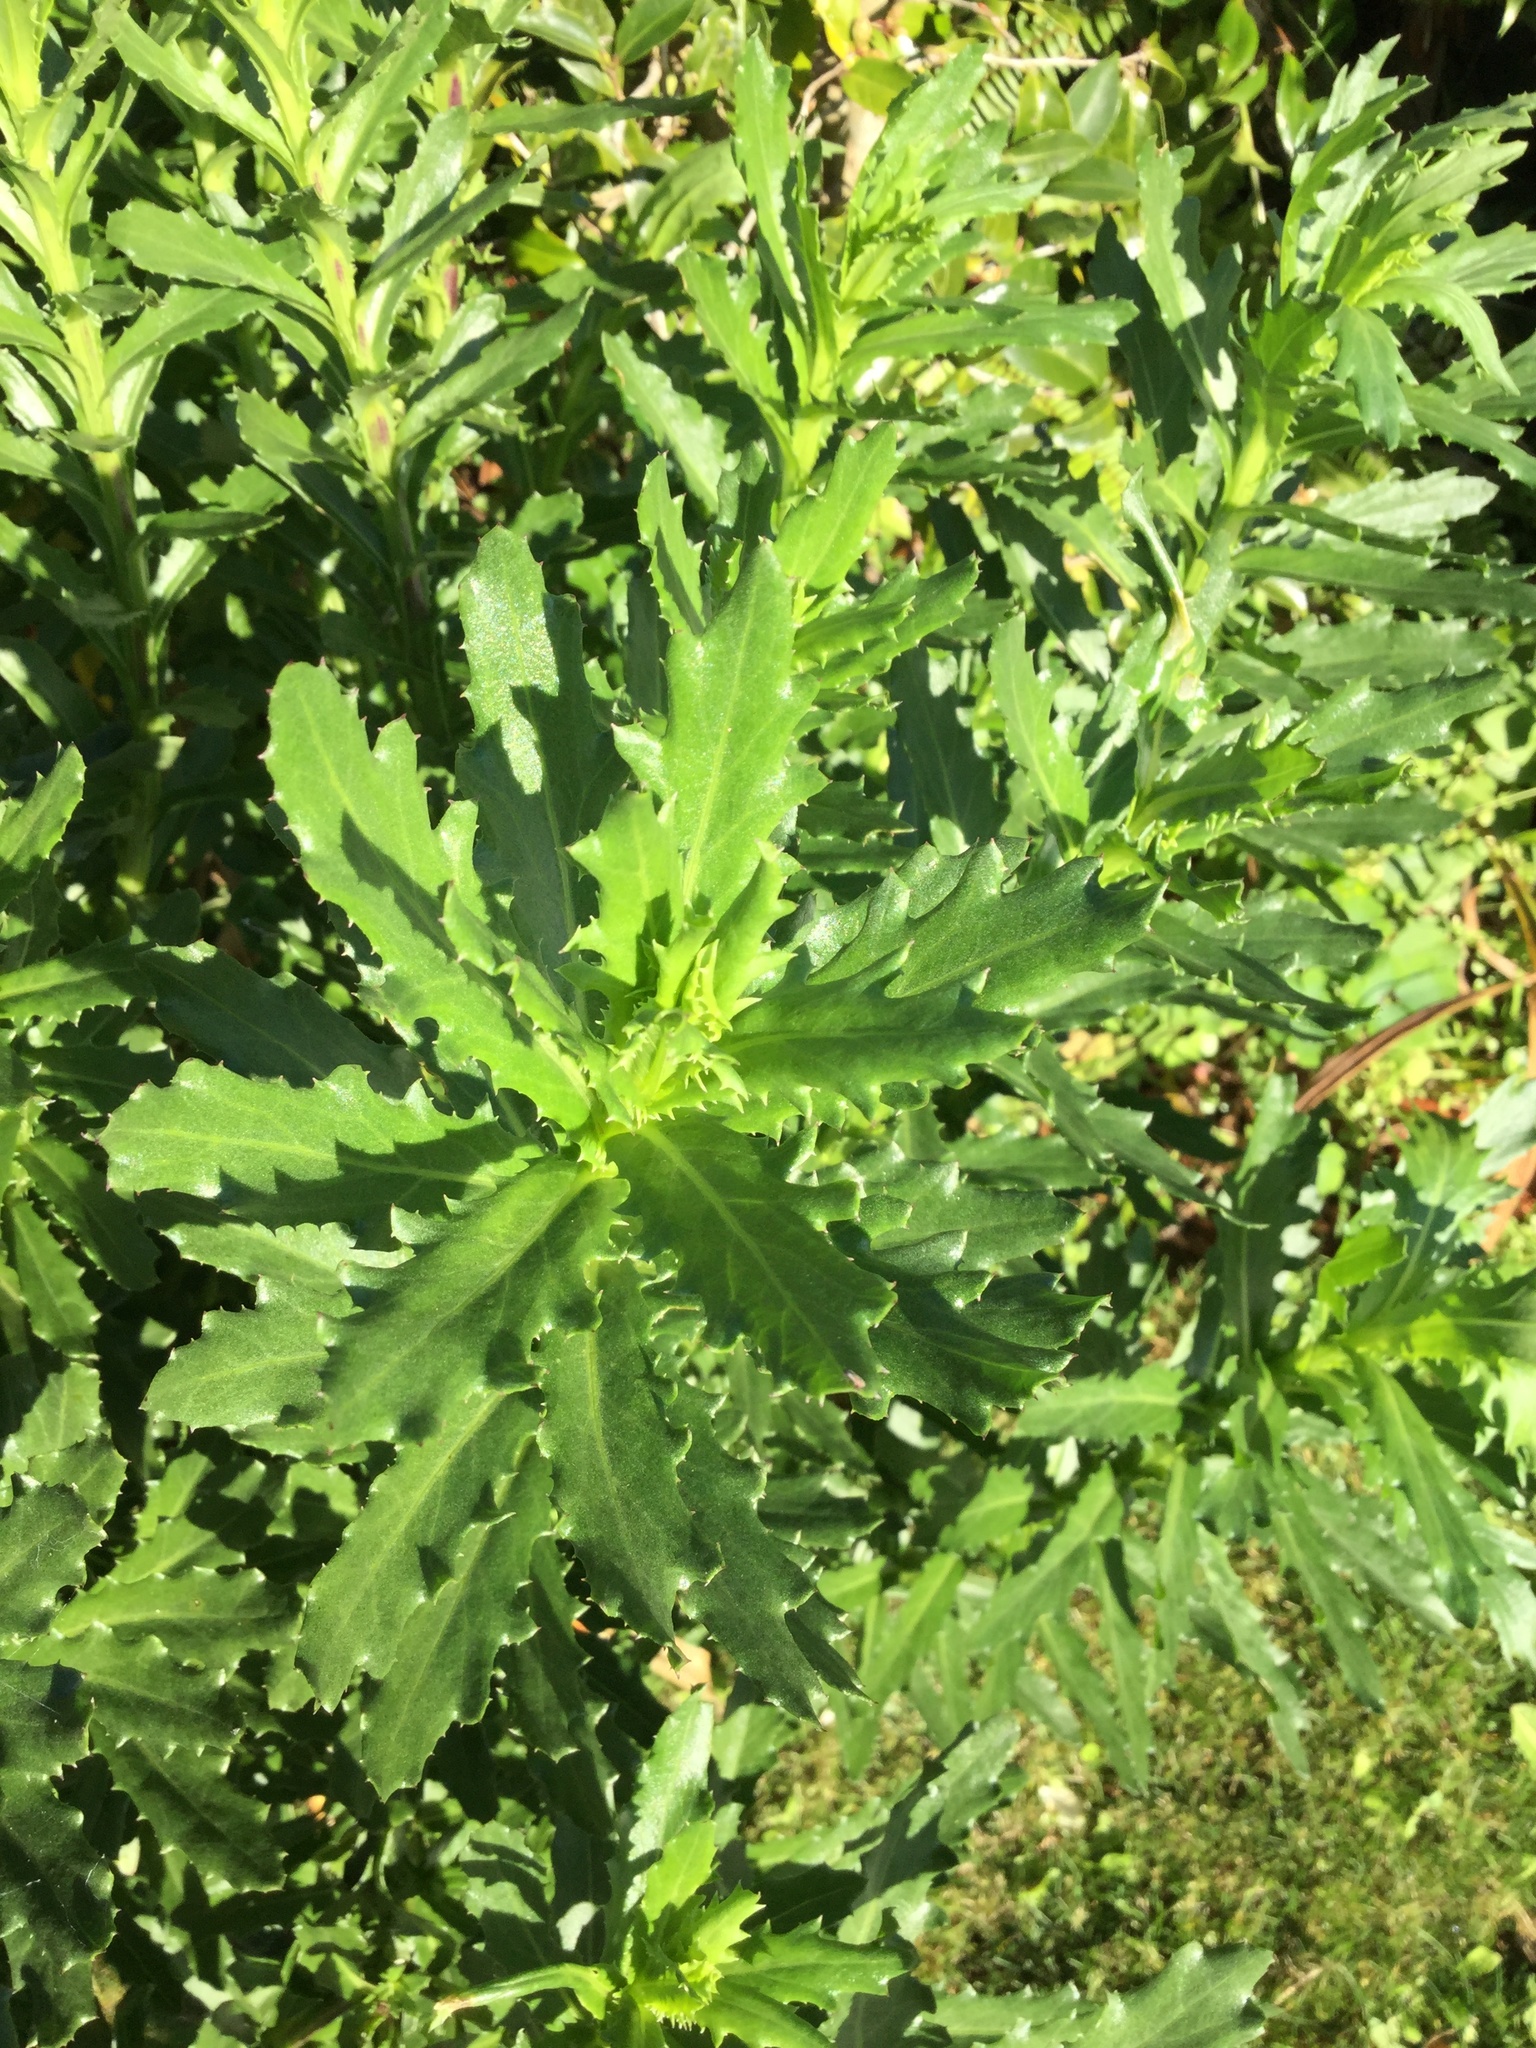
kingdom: Plantae
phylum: Tracheophyta
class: Magnoliopsida
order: Asterales
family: Asteraceae
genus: Senecio
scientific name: Senecio glastifolius
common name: Woad-leaved ragwort
